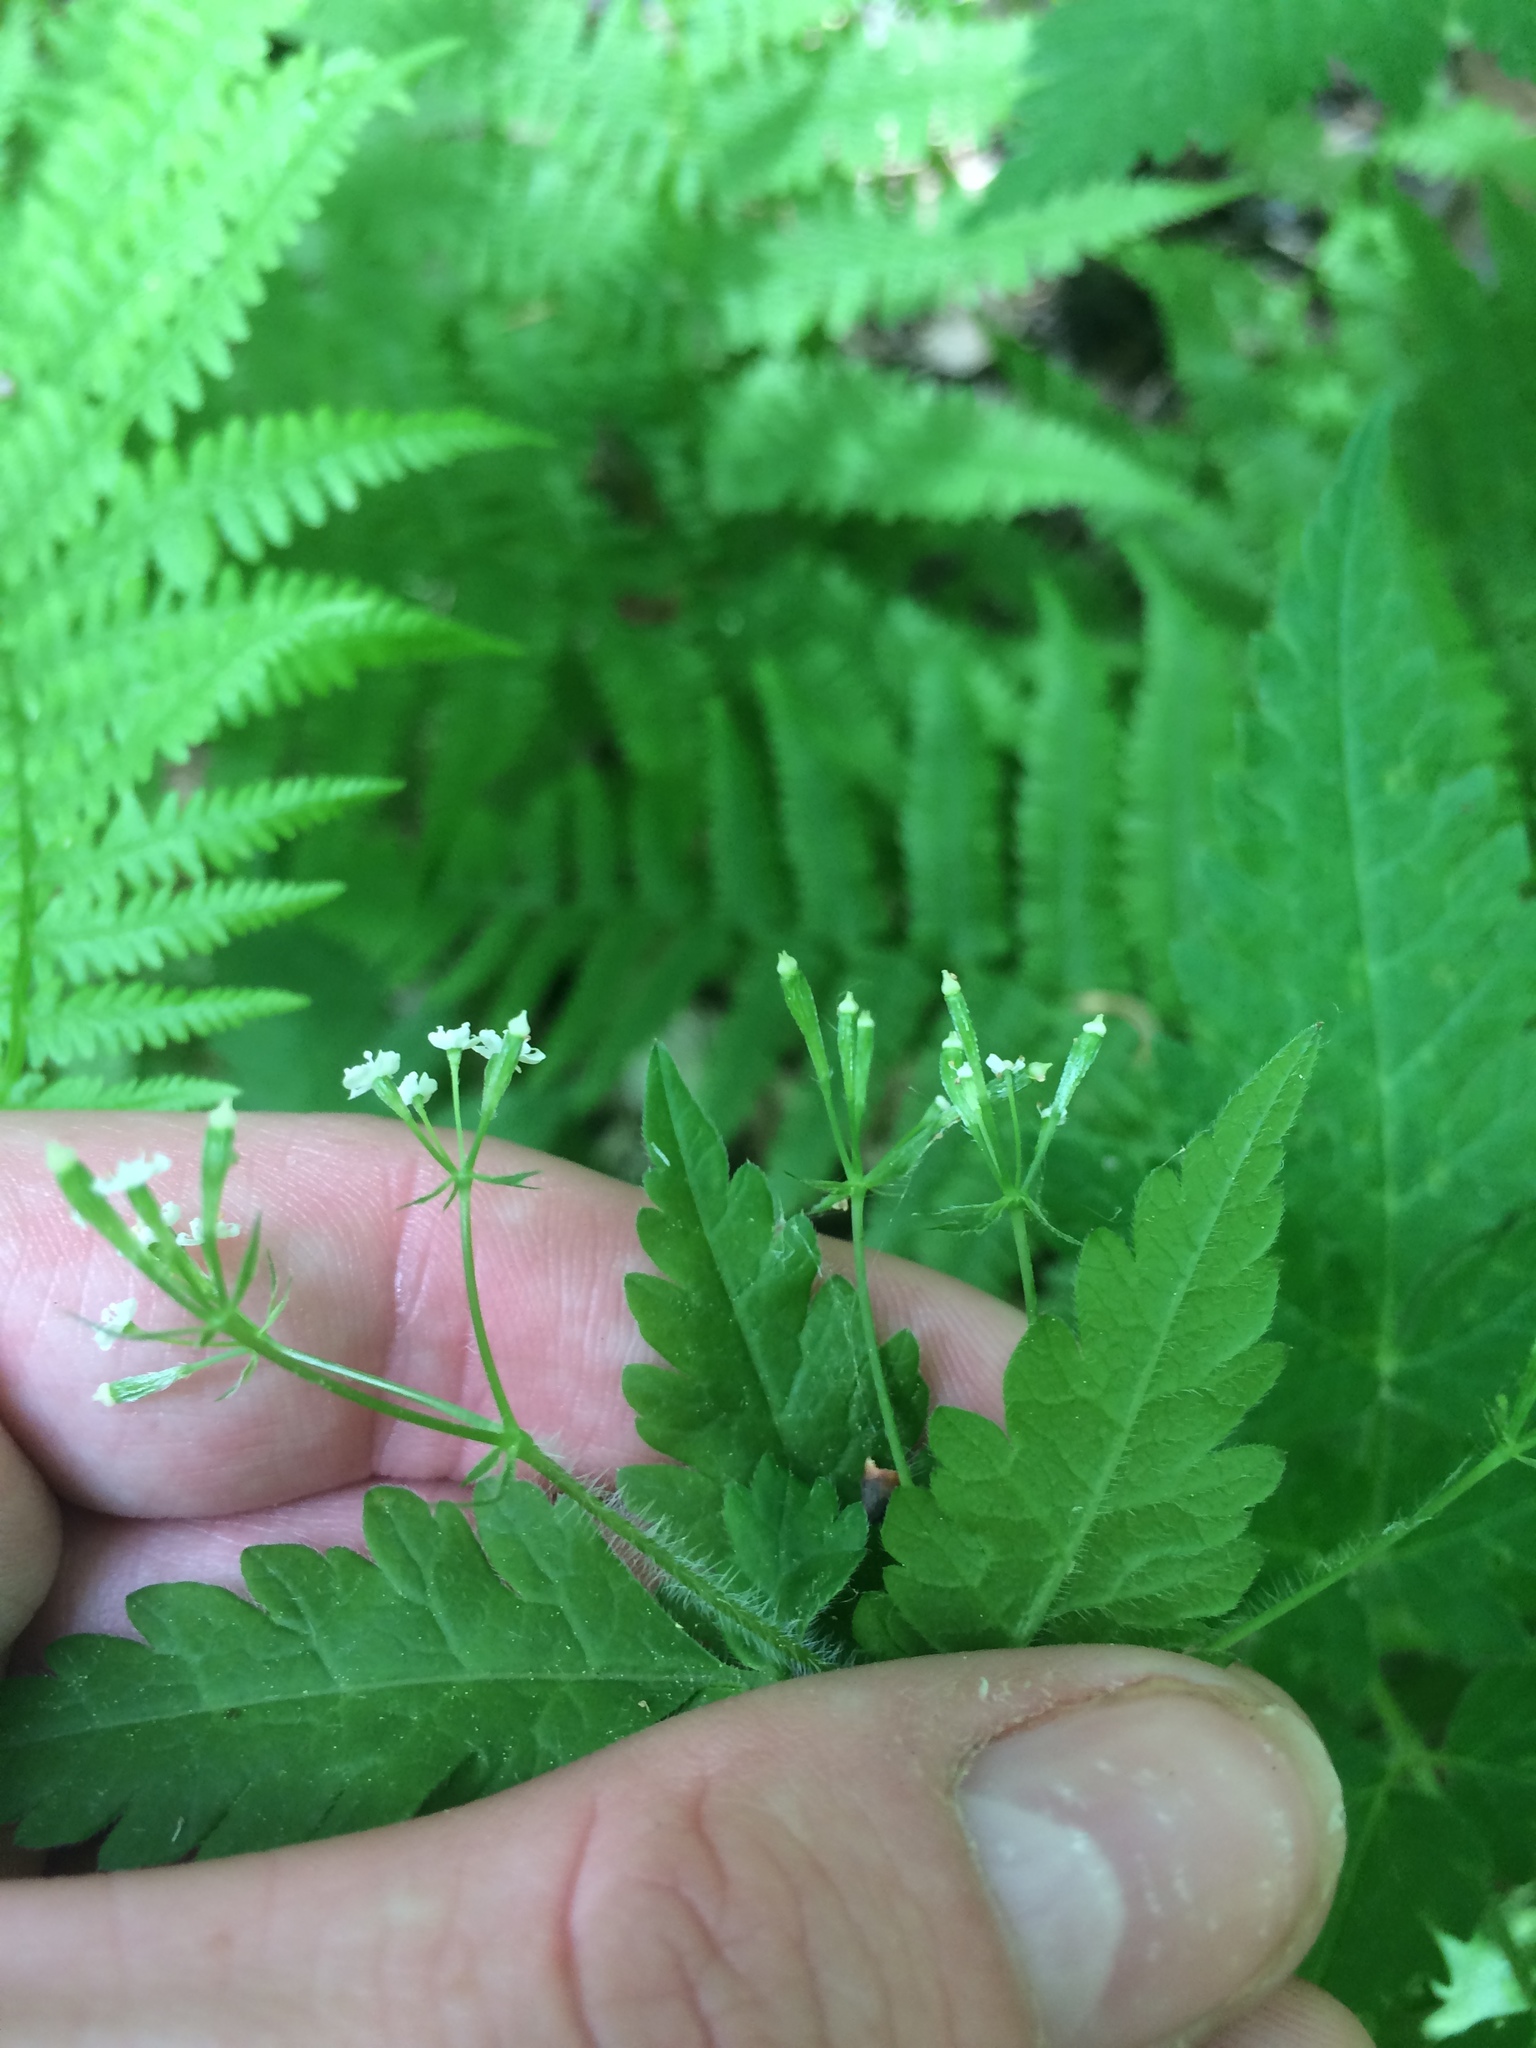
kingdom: Plantae
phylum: Tracheophyta
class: Magnoliopsida
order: Apiales
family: Apiaceae
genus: Osmorhiza
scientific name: Osmorhiza claytonii
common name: Hairy sweet cicely
